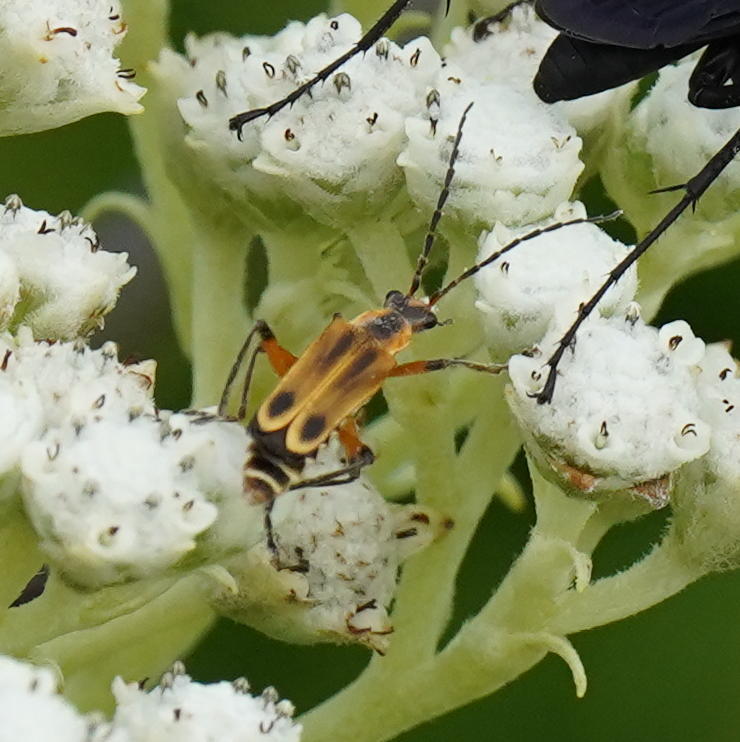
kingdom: Animalia
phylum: Arthropoda
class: Insecta
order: Coleoptera
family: Cantharidae
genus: Chauliognathus
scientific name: Chauliognathus marginatus
